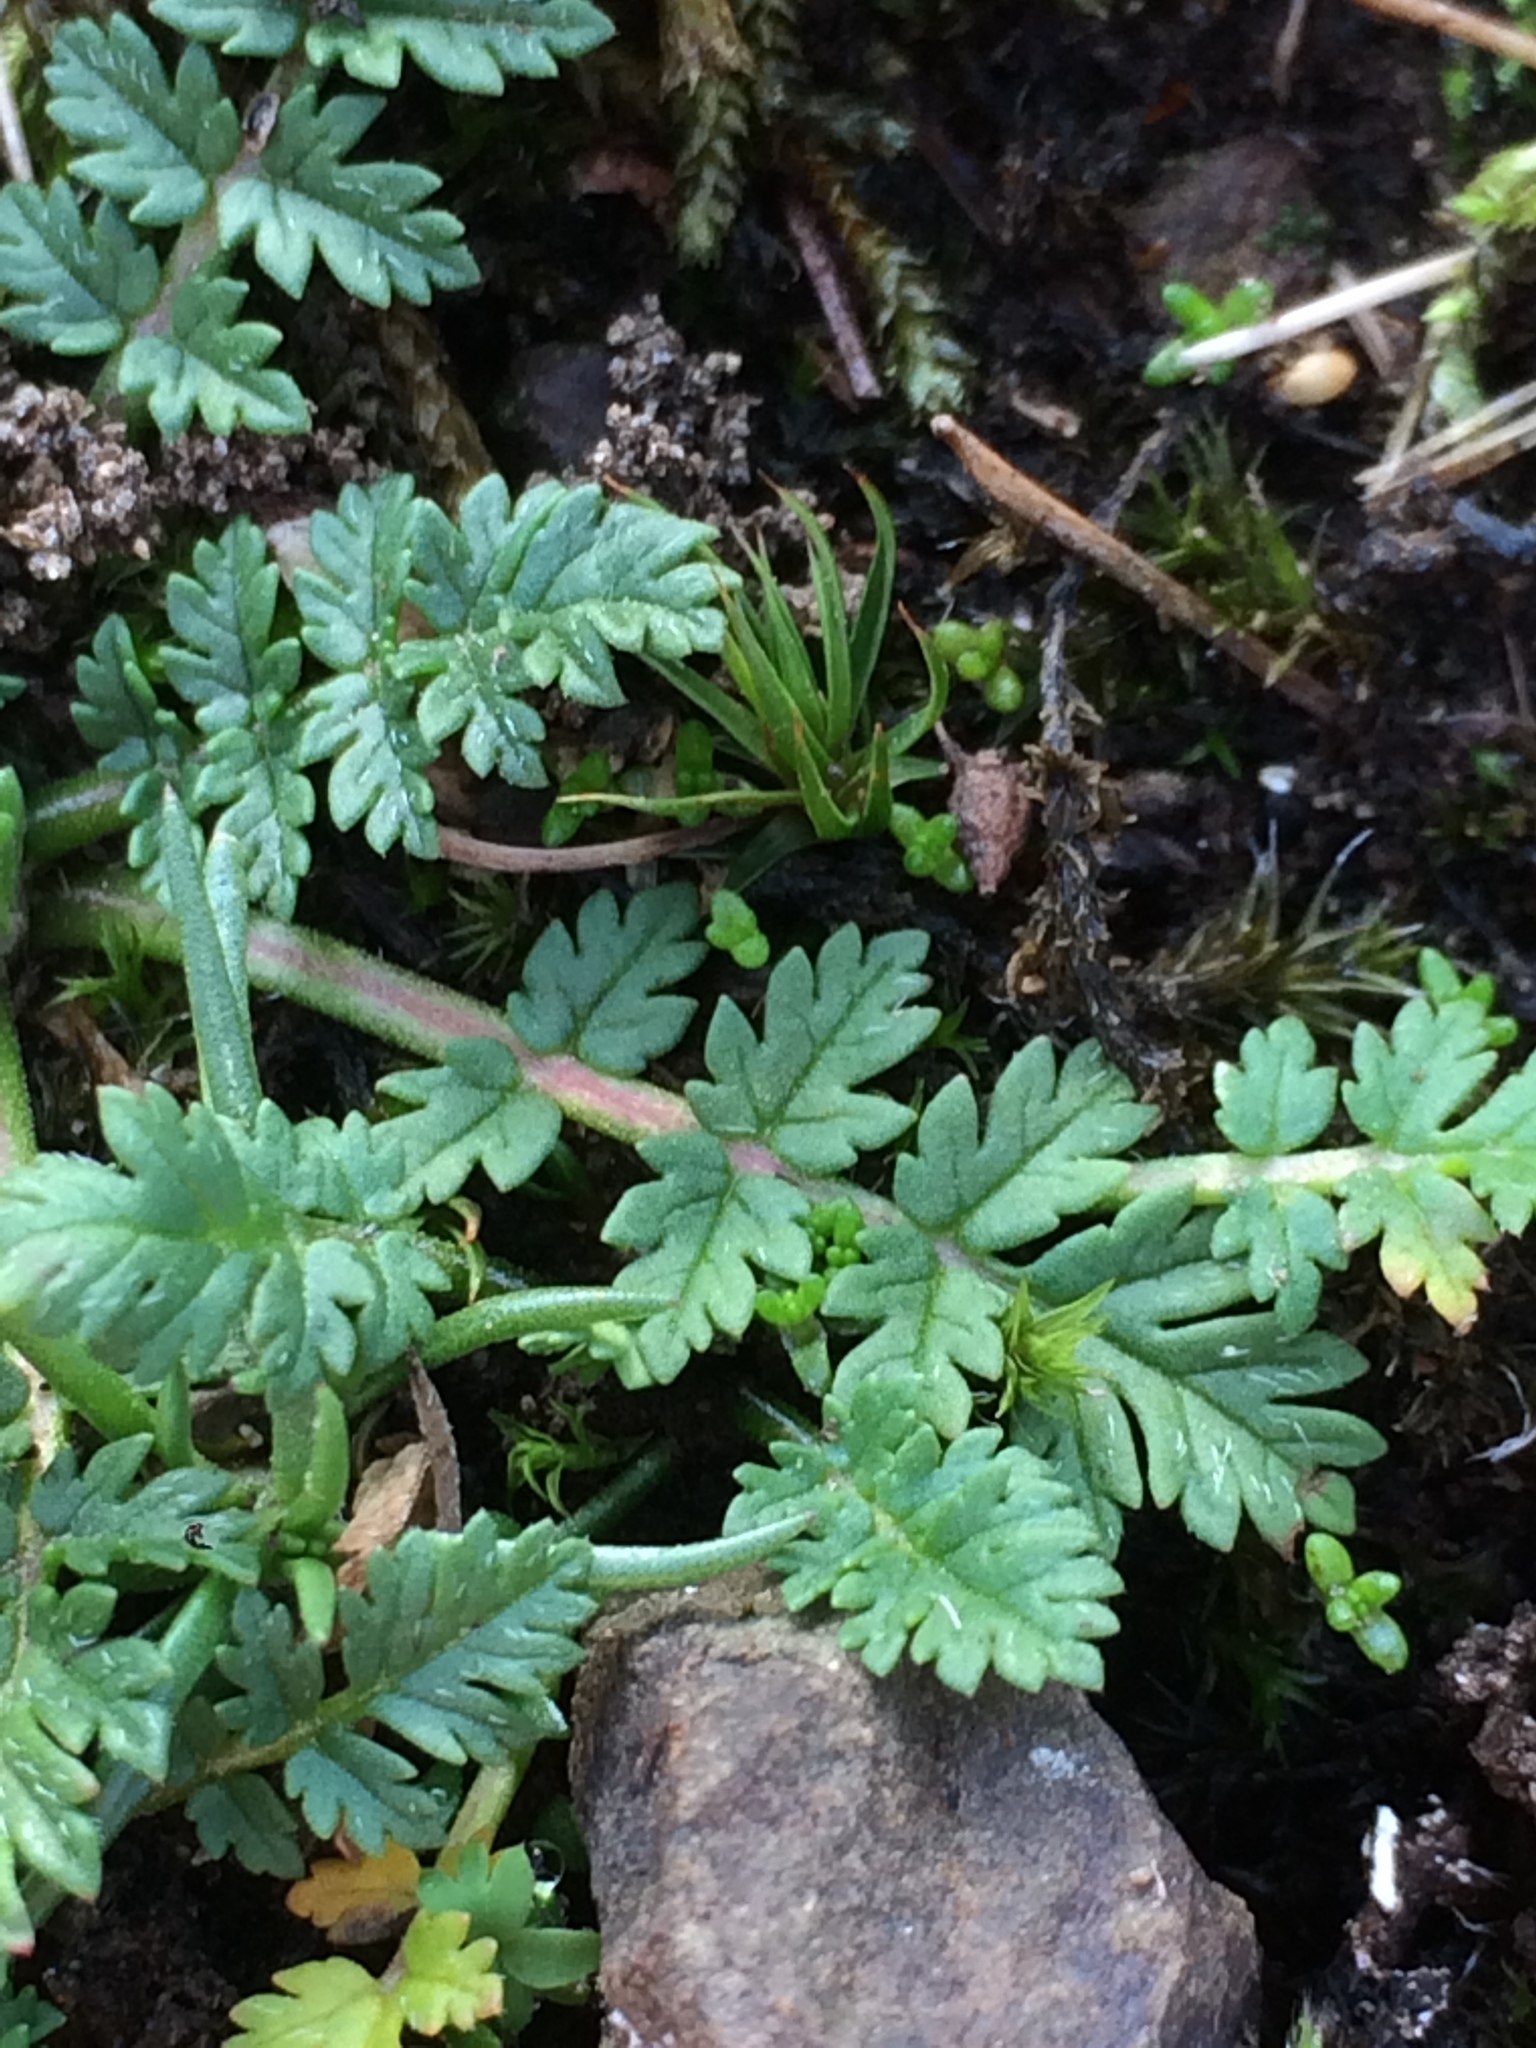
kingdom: Plantae
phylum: Tracheophyta
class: Magnoliopsida
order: Geraniales
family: Geraniaceae
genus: Erodium
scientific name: Erodium cicutarium
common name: Common stork's-bill
